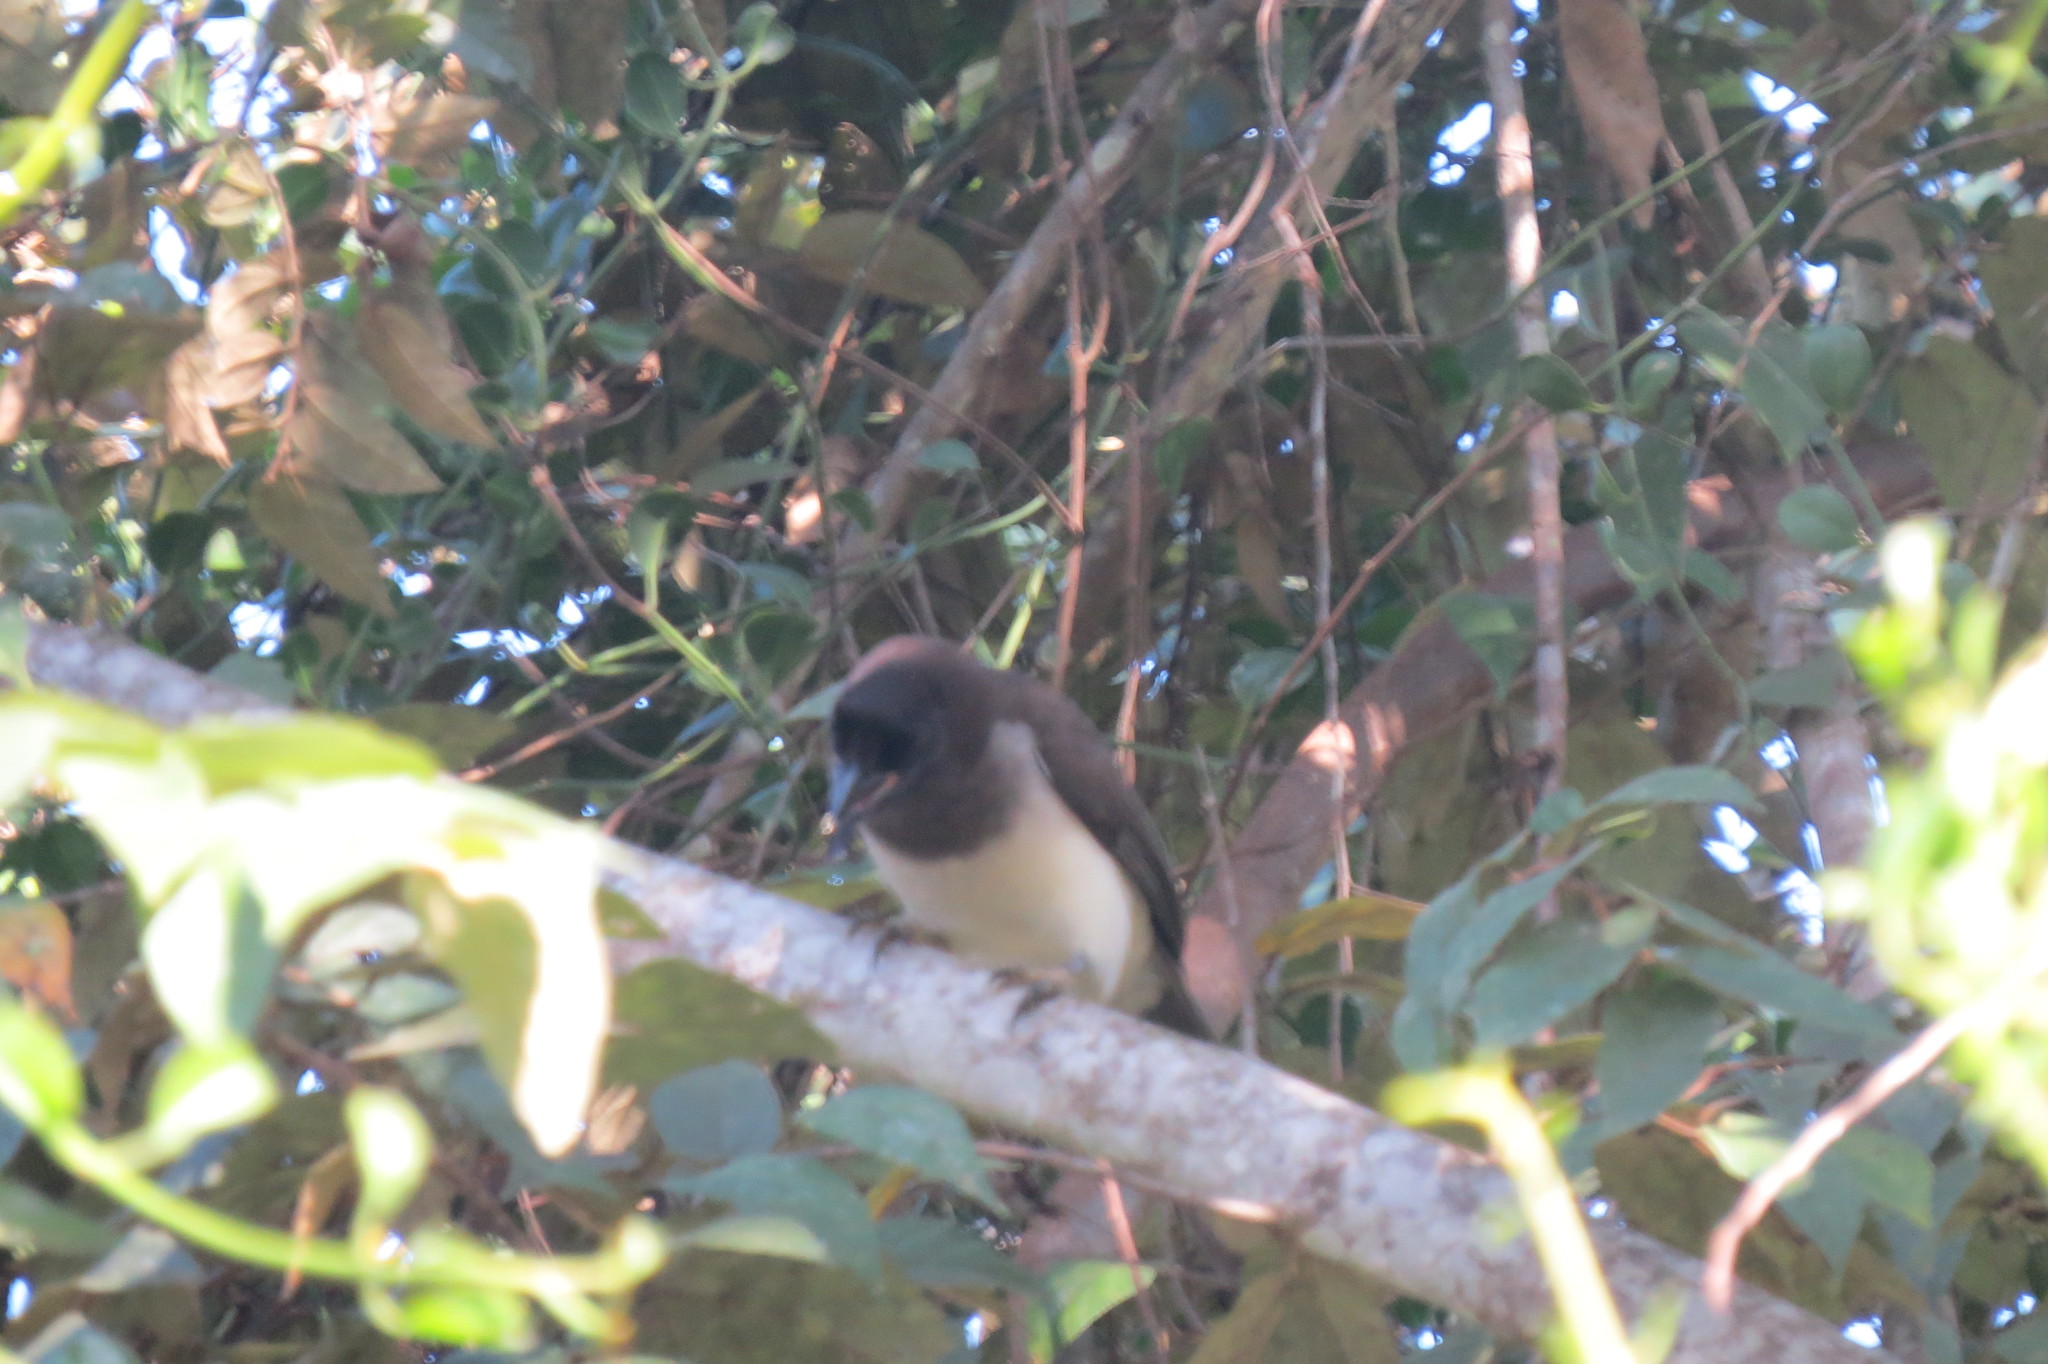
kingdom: Animalia
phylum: Chordata
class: Aves
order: Passeriformes
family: Corvidae
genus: Psilorhinus
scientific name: Psilorhinus morio
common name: Brown jay
